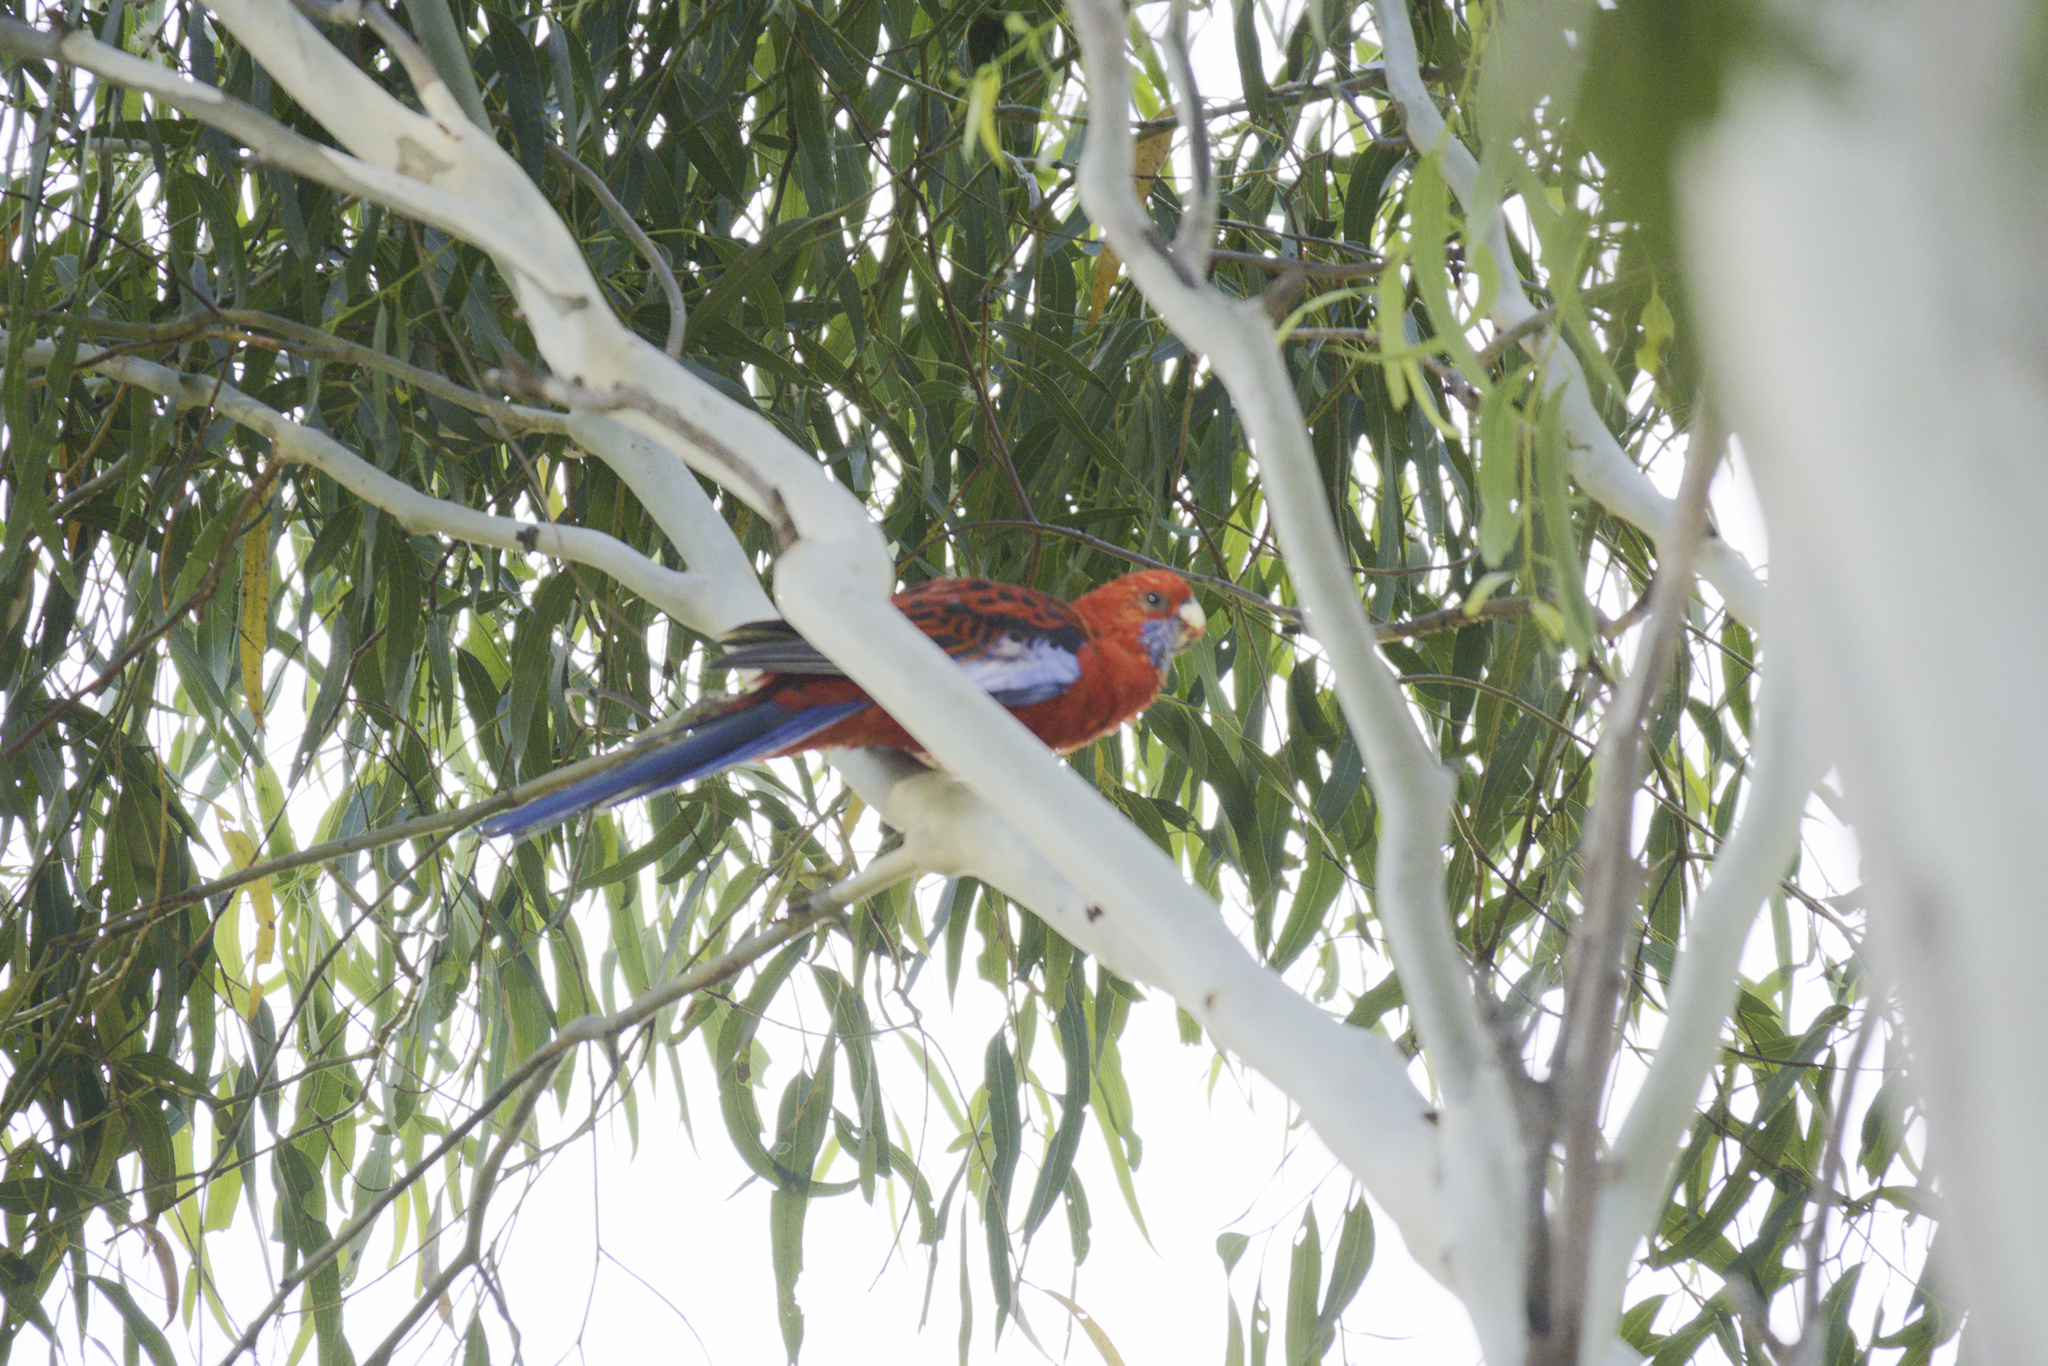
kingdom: Animalia
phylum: Chordata
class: Aves
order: Psittaciformes
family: Psittacidae
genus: Platycercus
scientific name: Platycercus elegans
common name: Crimson rosella
